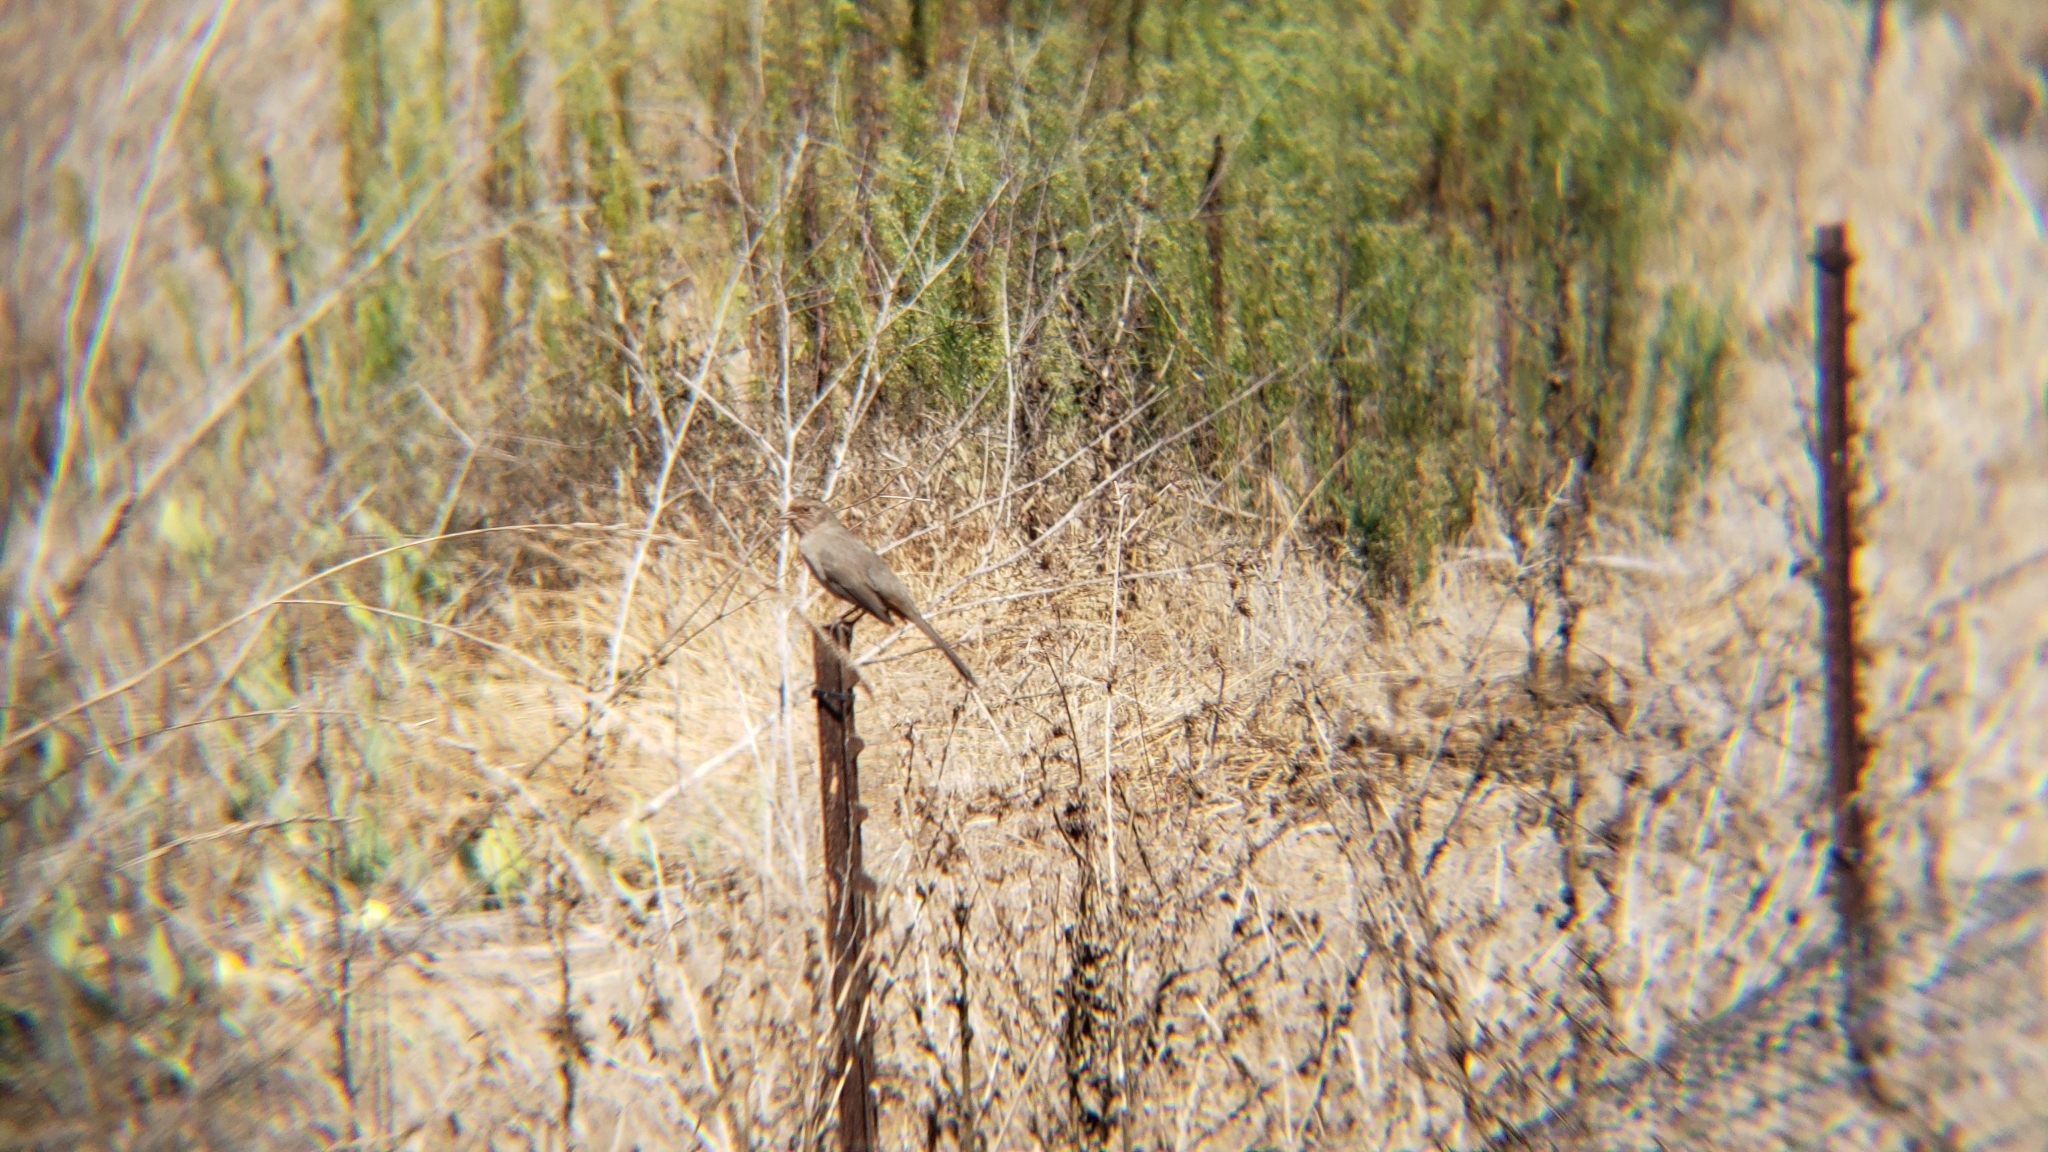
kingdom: Animalia
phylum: Chordata
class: Aves
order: Passeriformes
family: Passerellidae
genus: Melozone
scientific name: Melozone crissalis
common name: California towhee
